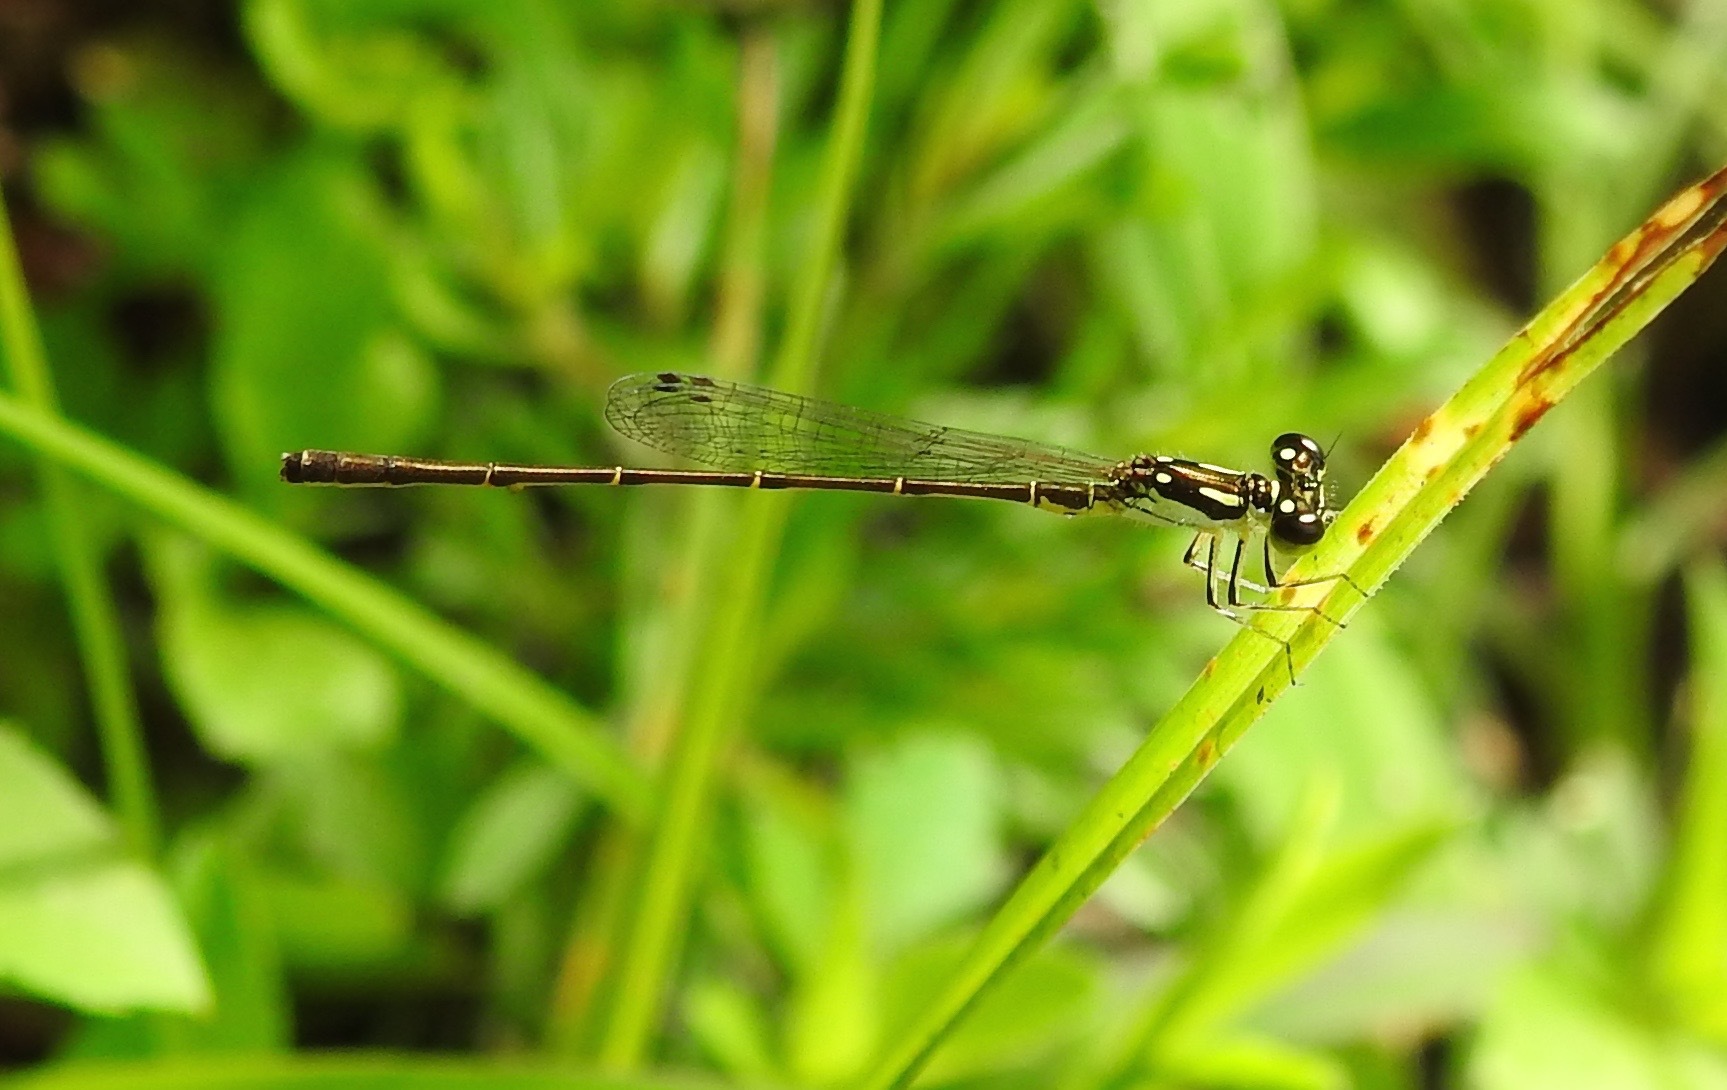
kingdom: Animalia
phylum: Arthropoda
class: Insecta
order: Odonata
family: Coenagrionidae
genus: Ischnura
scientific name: Ischnura posita
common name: Fragile forktail
